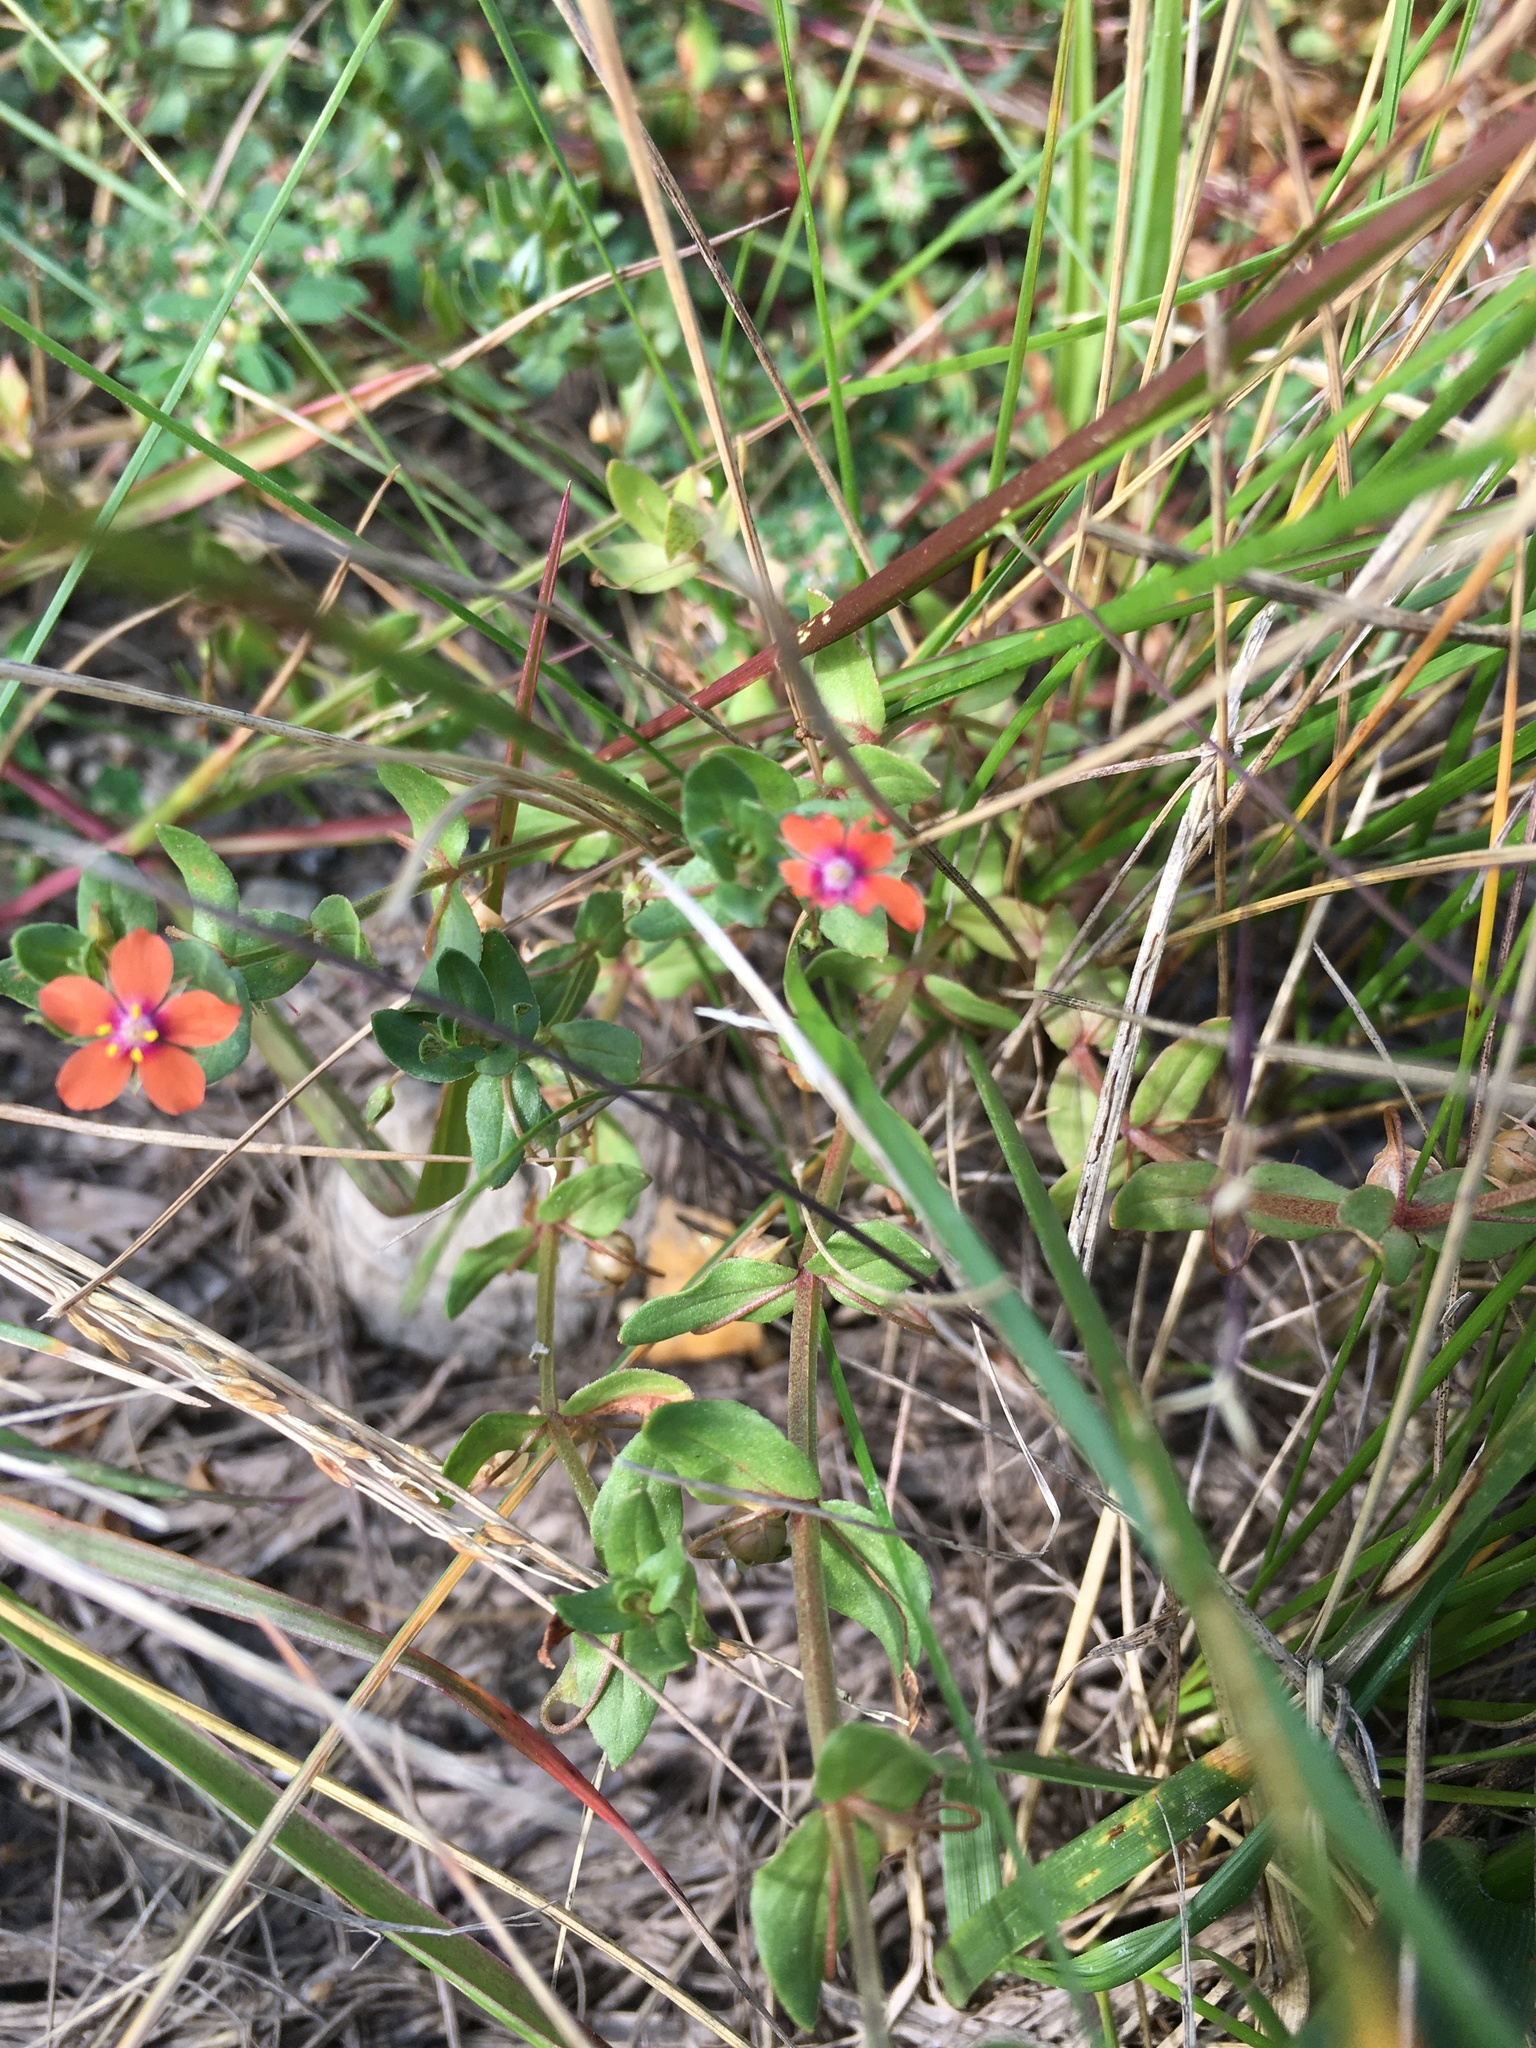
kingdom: Plantae
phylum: Tracheophyta
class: Magnoliopsida
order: Ericales
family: Primulaceae
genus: Lysimachia
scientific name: Lysimachia arvensis
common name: Scarlet pimpernel
